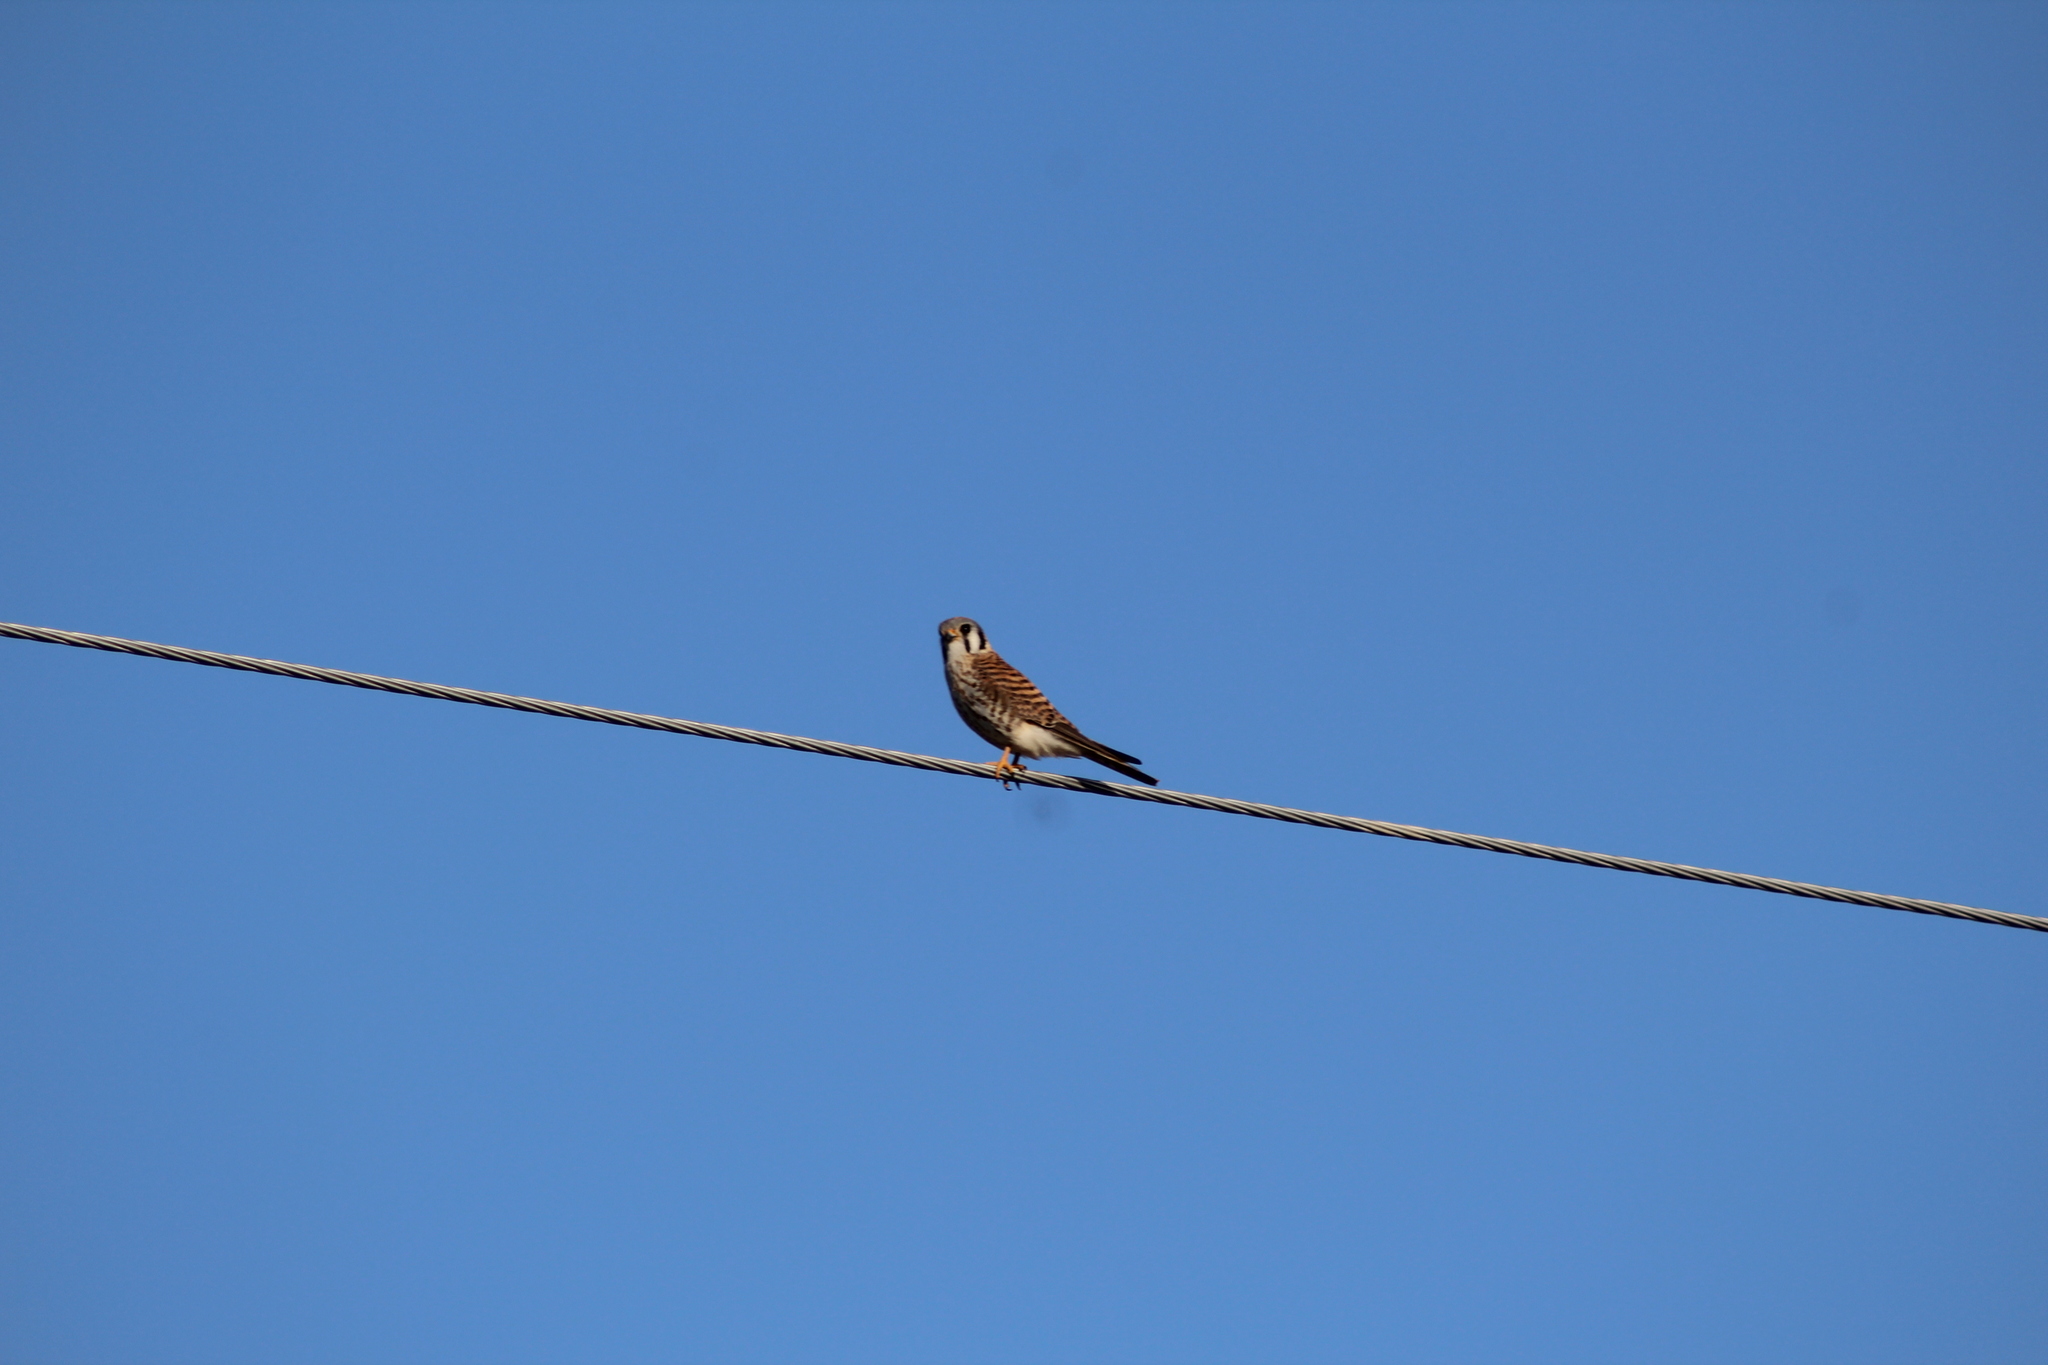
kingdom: Animalia
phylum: Chordata
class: Aves
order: Falconiformes
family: Falconidae
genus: Falco
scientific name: Falco sparverius
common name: American kestrel
